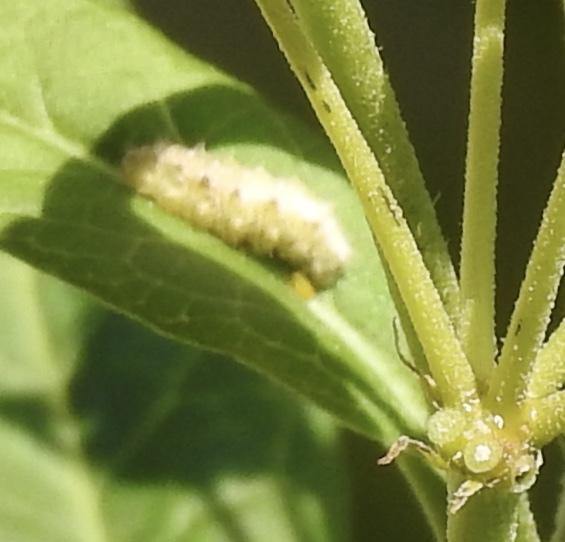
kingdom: Animalia
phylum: Arthropoda
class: Insecta
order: Diptera
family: Syrphidae
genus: Dioprosopa
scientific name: Dioprosopa clavatus
